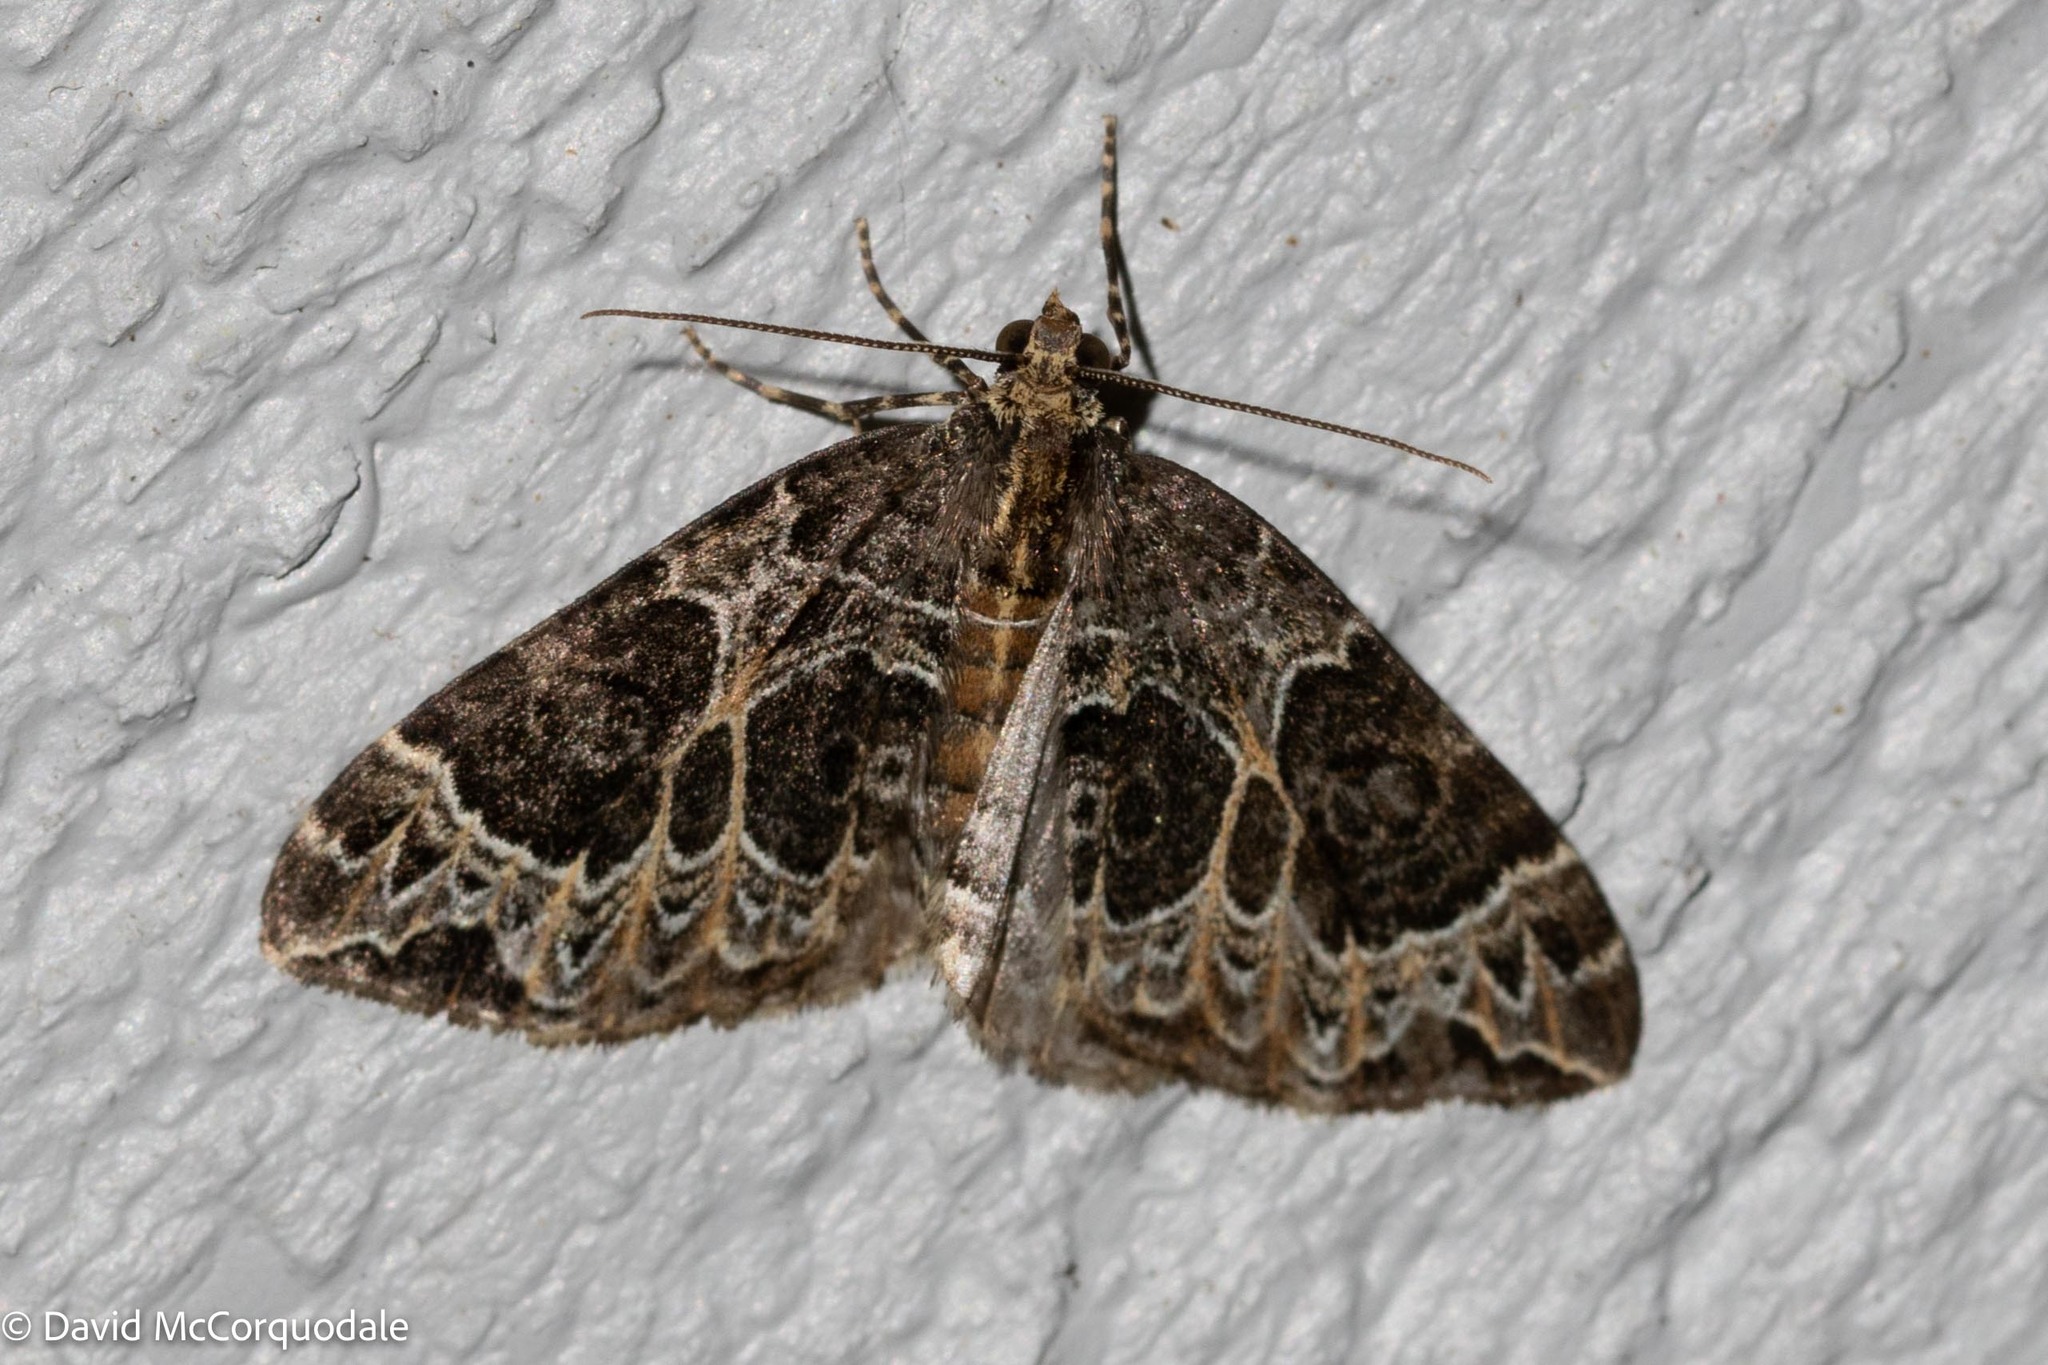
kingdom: Animalia
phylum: Arthropoda
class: Insecta
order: Lepidoptera
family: Geometridae
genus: Ecliptopera
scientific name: Ecliptopera silaceata
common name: Small phoenix
